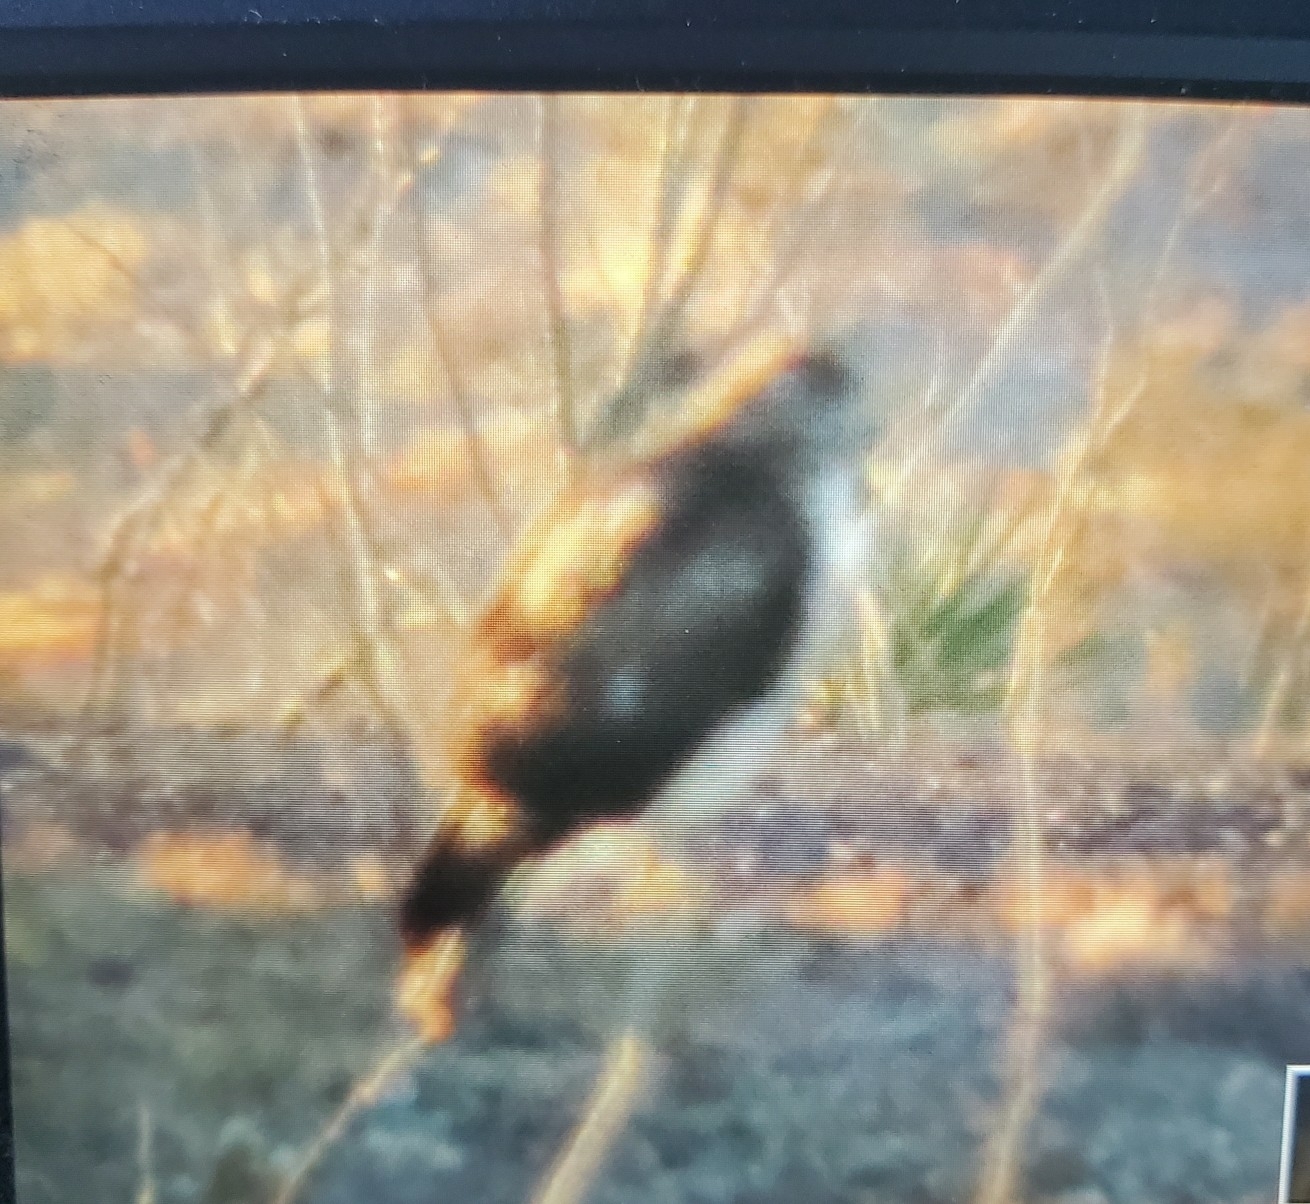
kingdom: Animalia
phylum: Chordata
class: Aves
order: Accipitriformes
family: Accipitridae
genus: Buteo
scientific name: Buteo jamaicensis
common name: Red-tailed hawk
